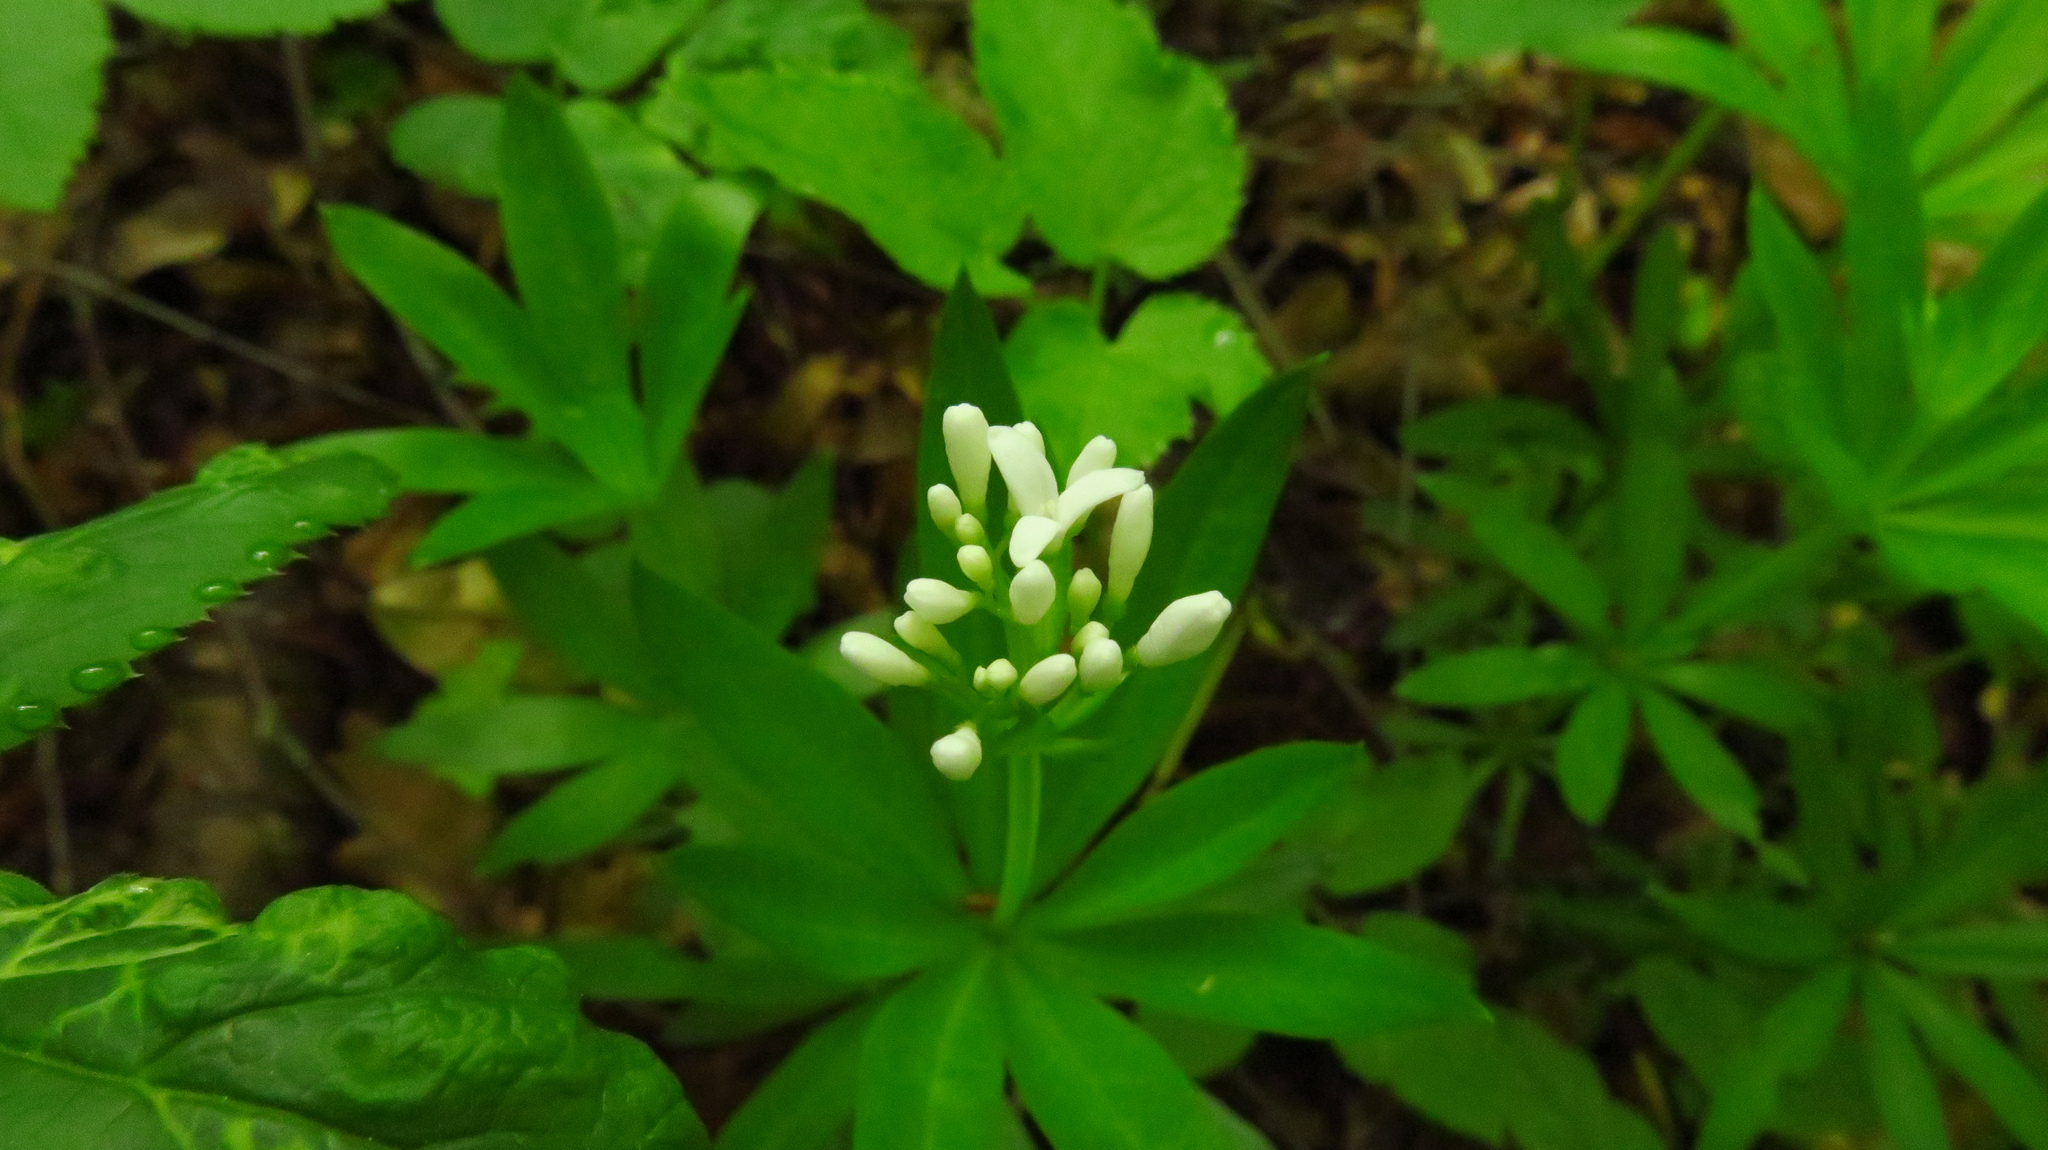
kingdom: Plantae
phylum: Tracheophyta
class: Magnoliopsida
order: Gentianales
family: Rubiaceae
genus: Galium
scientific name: Galium odoratum
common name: Sweet woodruff
